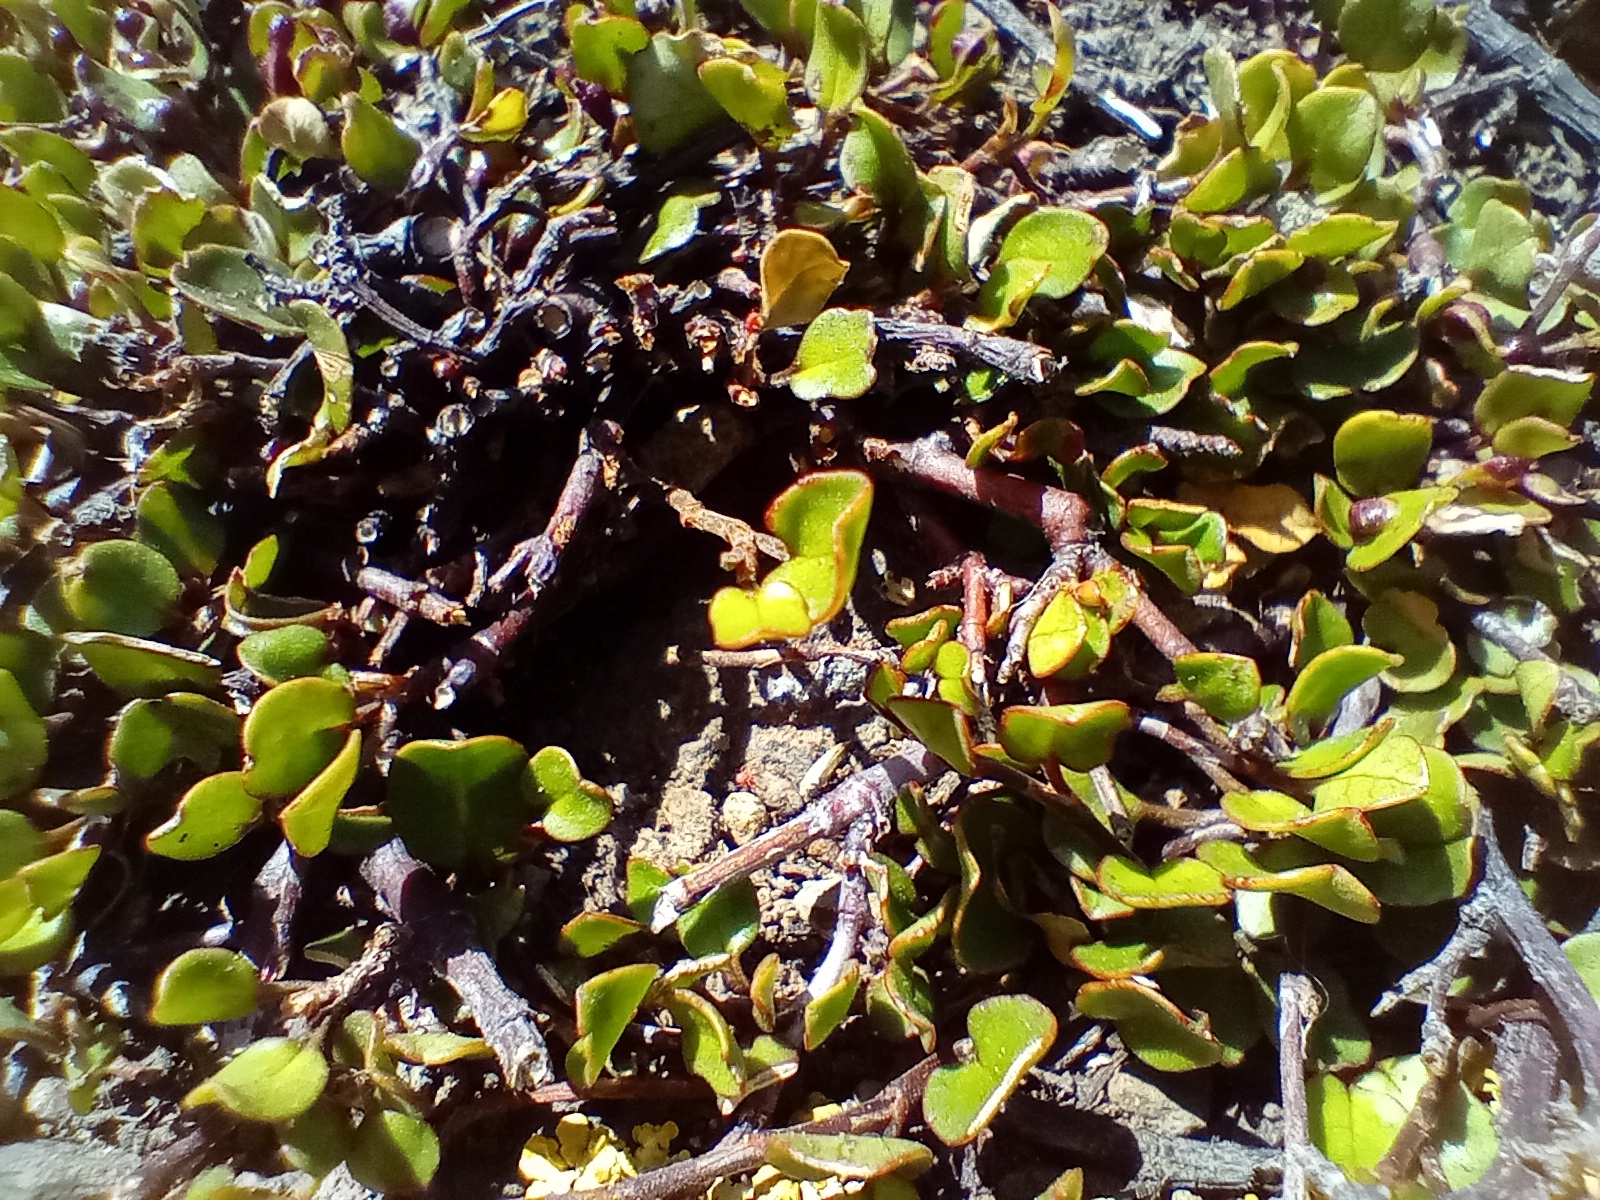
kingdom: Plantae
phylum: Tracheophyta
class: Magnoliopsida
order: Caryophyllales
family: Polygonaceae
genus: Muehlenbeckia
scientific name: Muehlenbeckia axillaris
